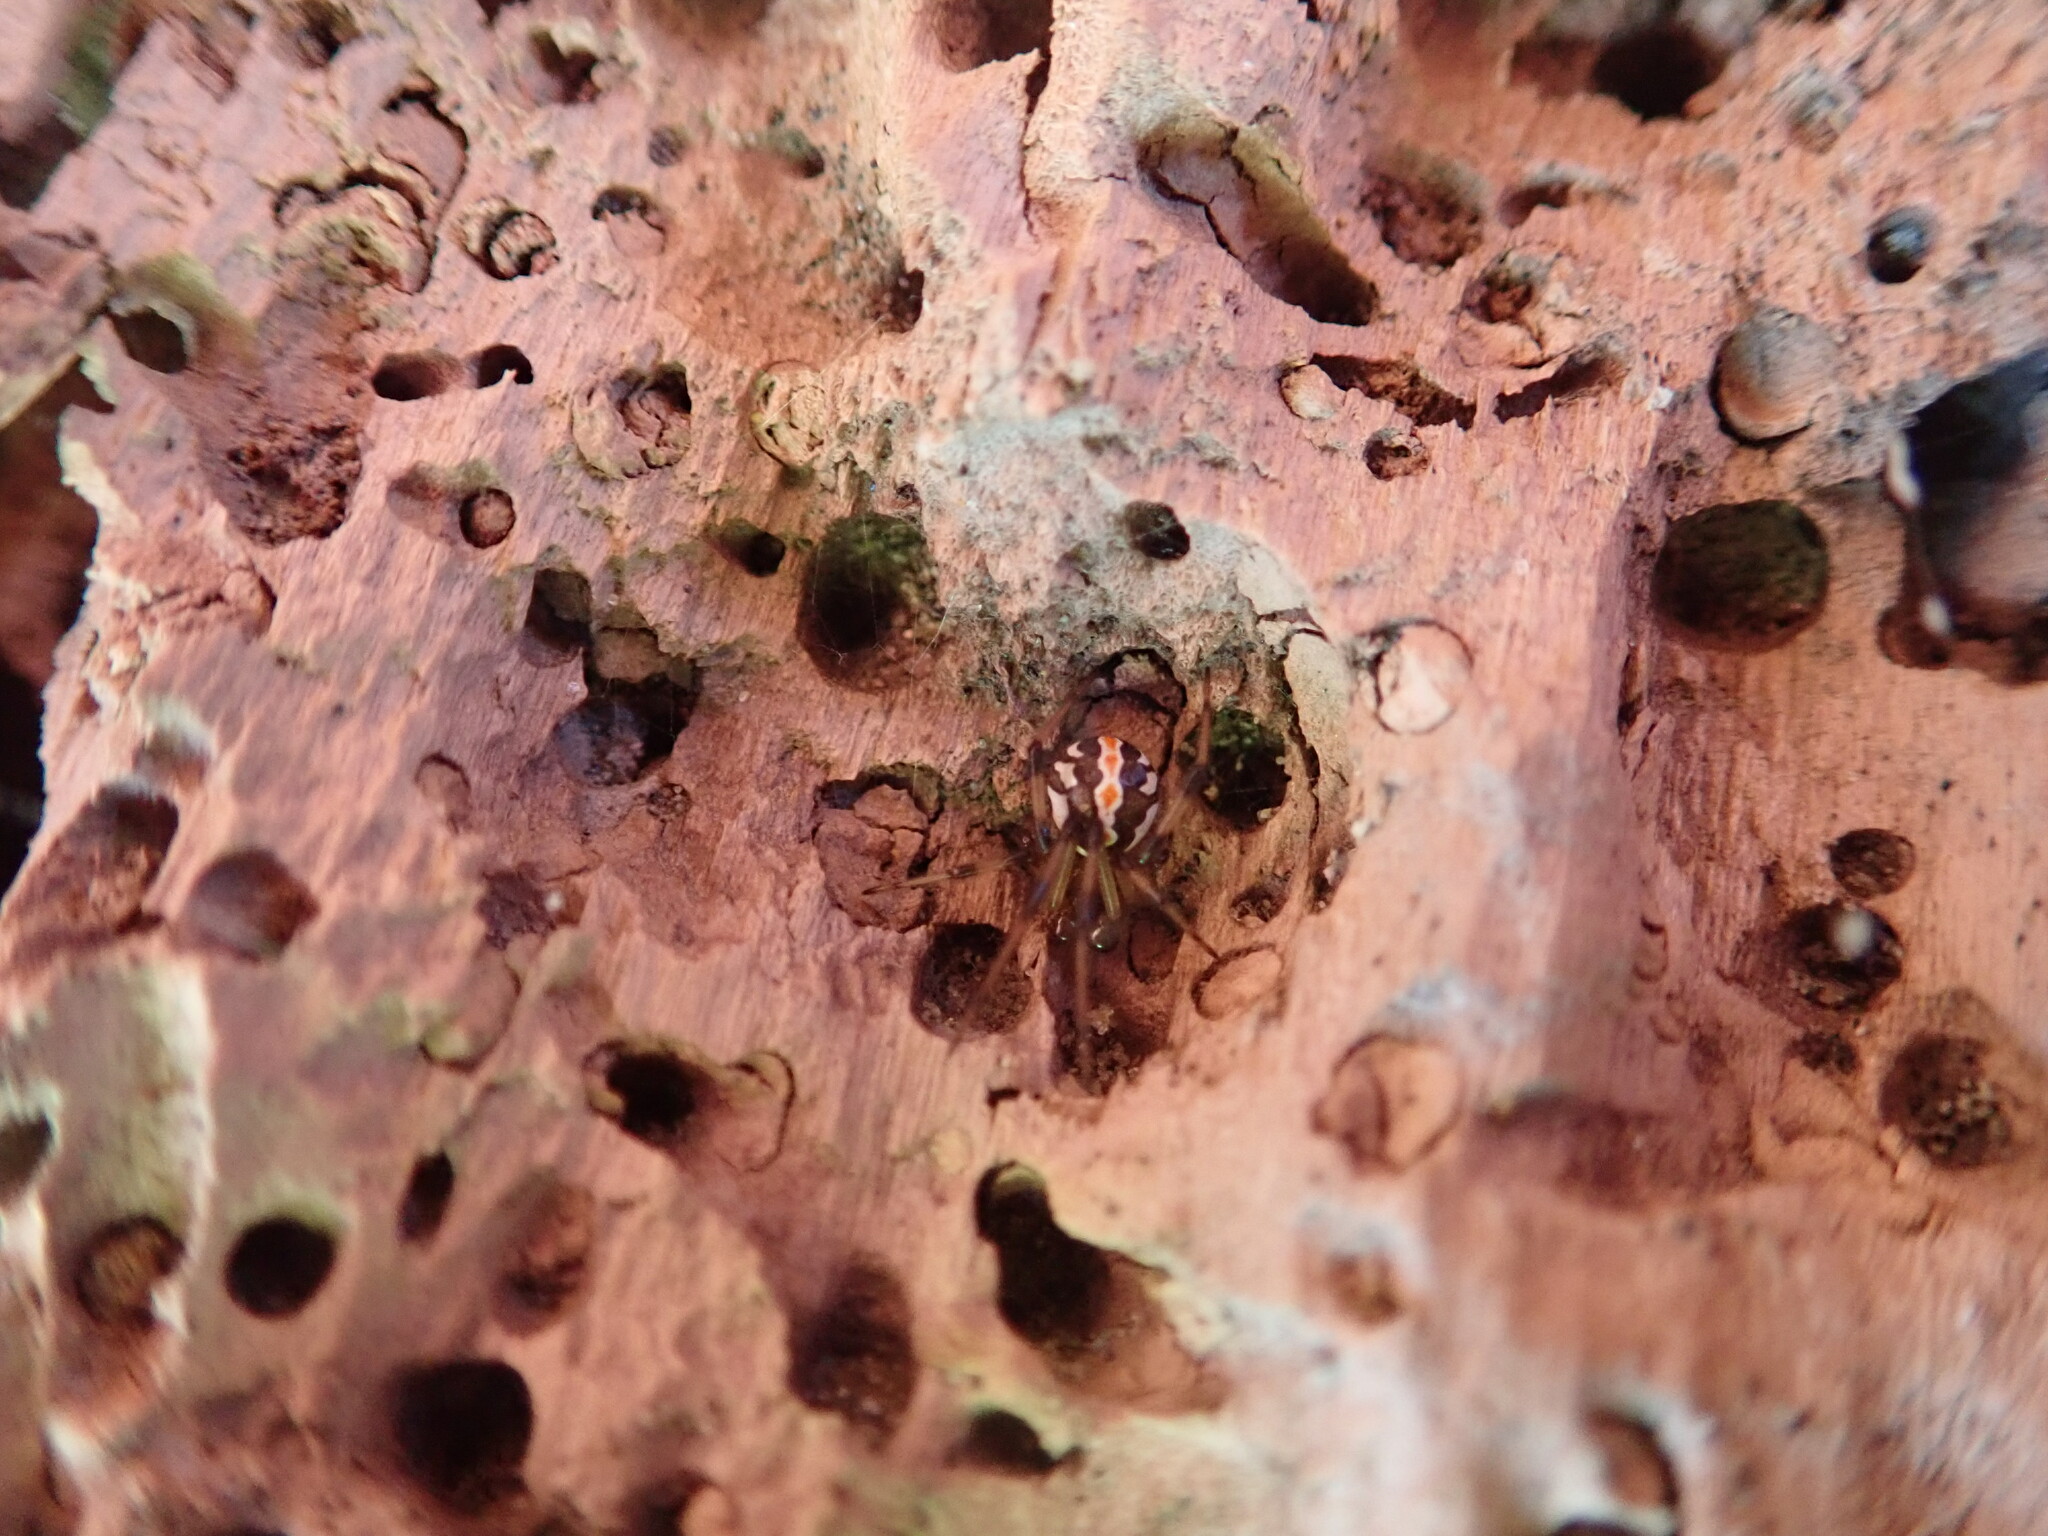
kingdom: Animalia
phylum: Arthropoda
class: Arachnida
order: Araneae
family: Theridiidae
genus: Latrodectus
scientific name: Latrodectus katipo
